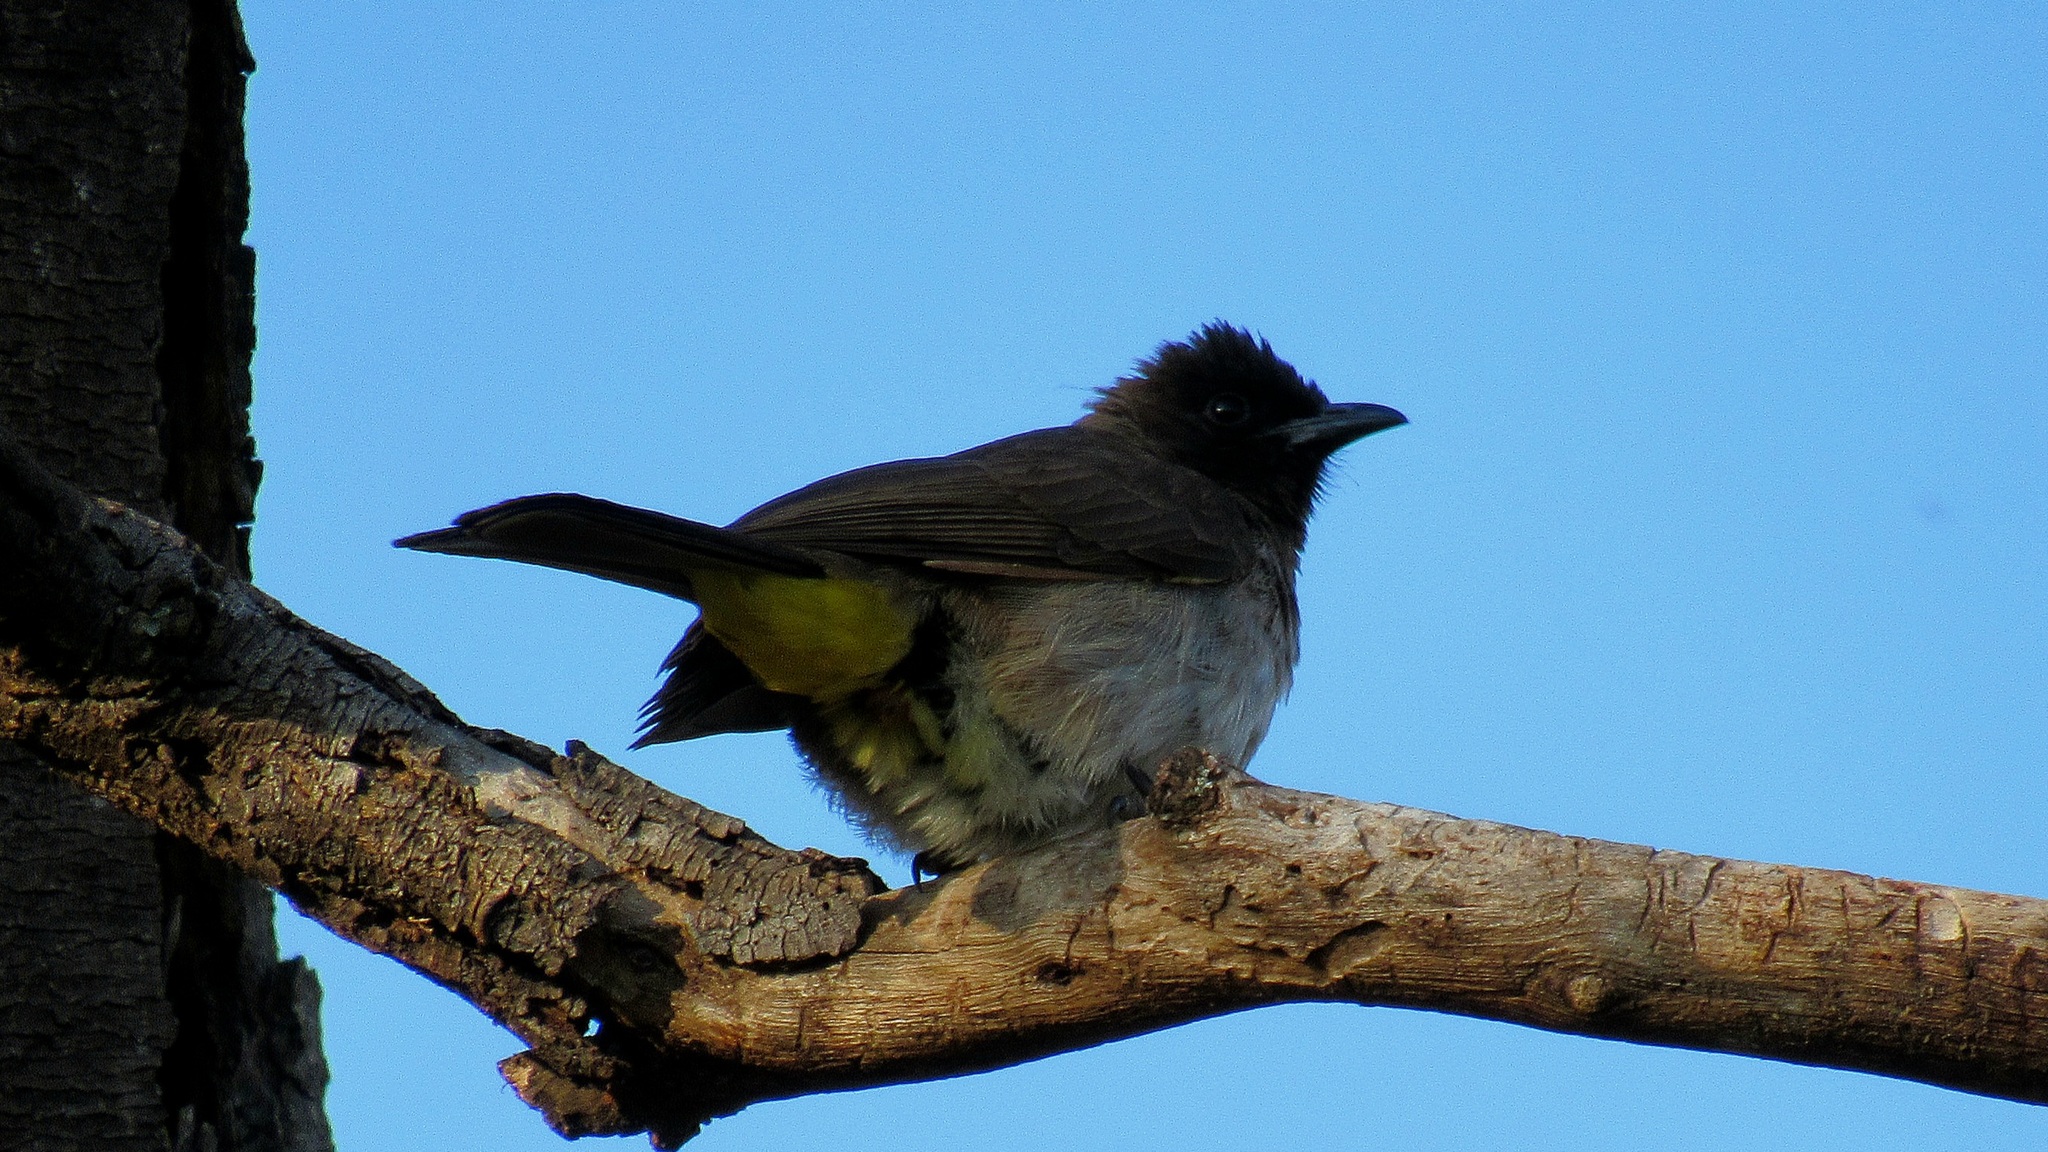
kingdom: Animalia
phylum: Chordata
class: Aves
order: Passeriformes
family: Pycnonotidae
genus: Pycnonotus
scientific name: Pycnonotus barbatus
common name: Common bulbul
